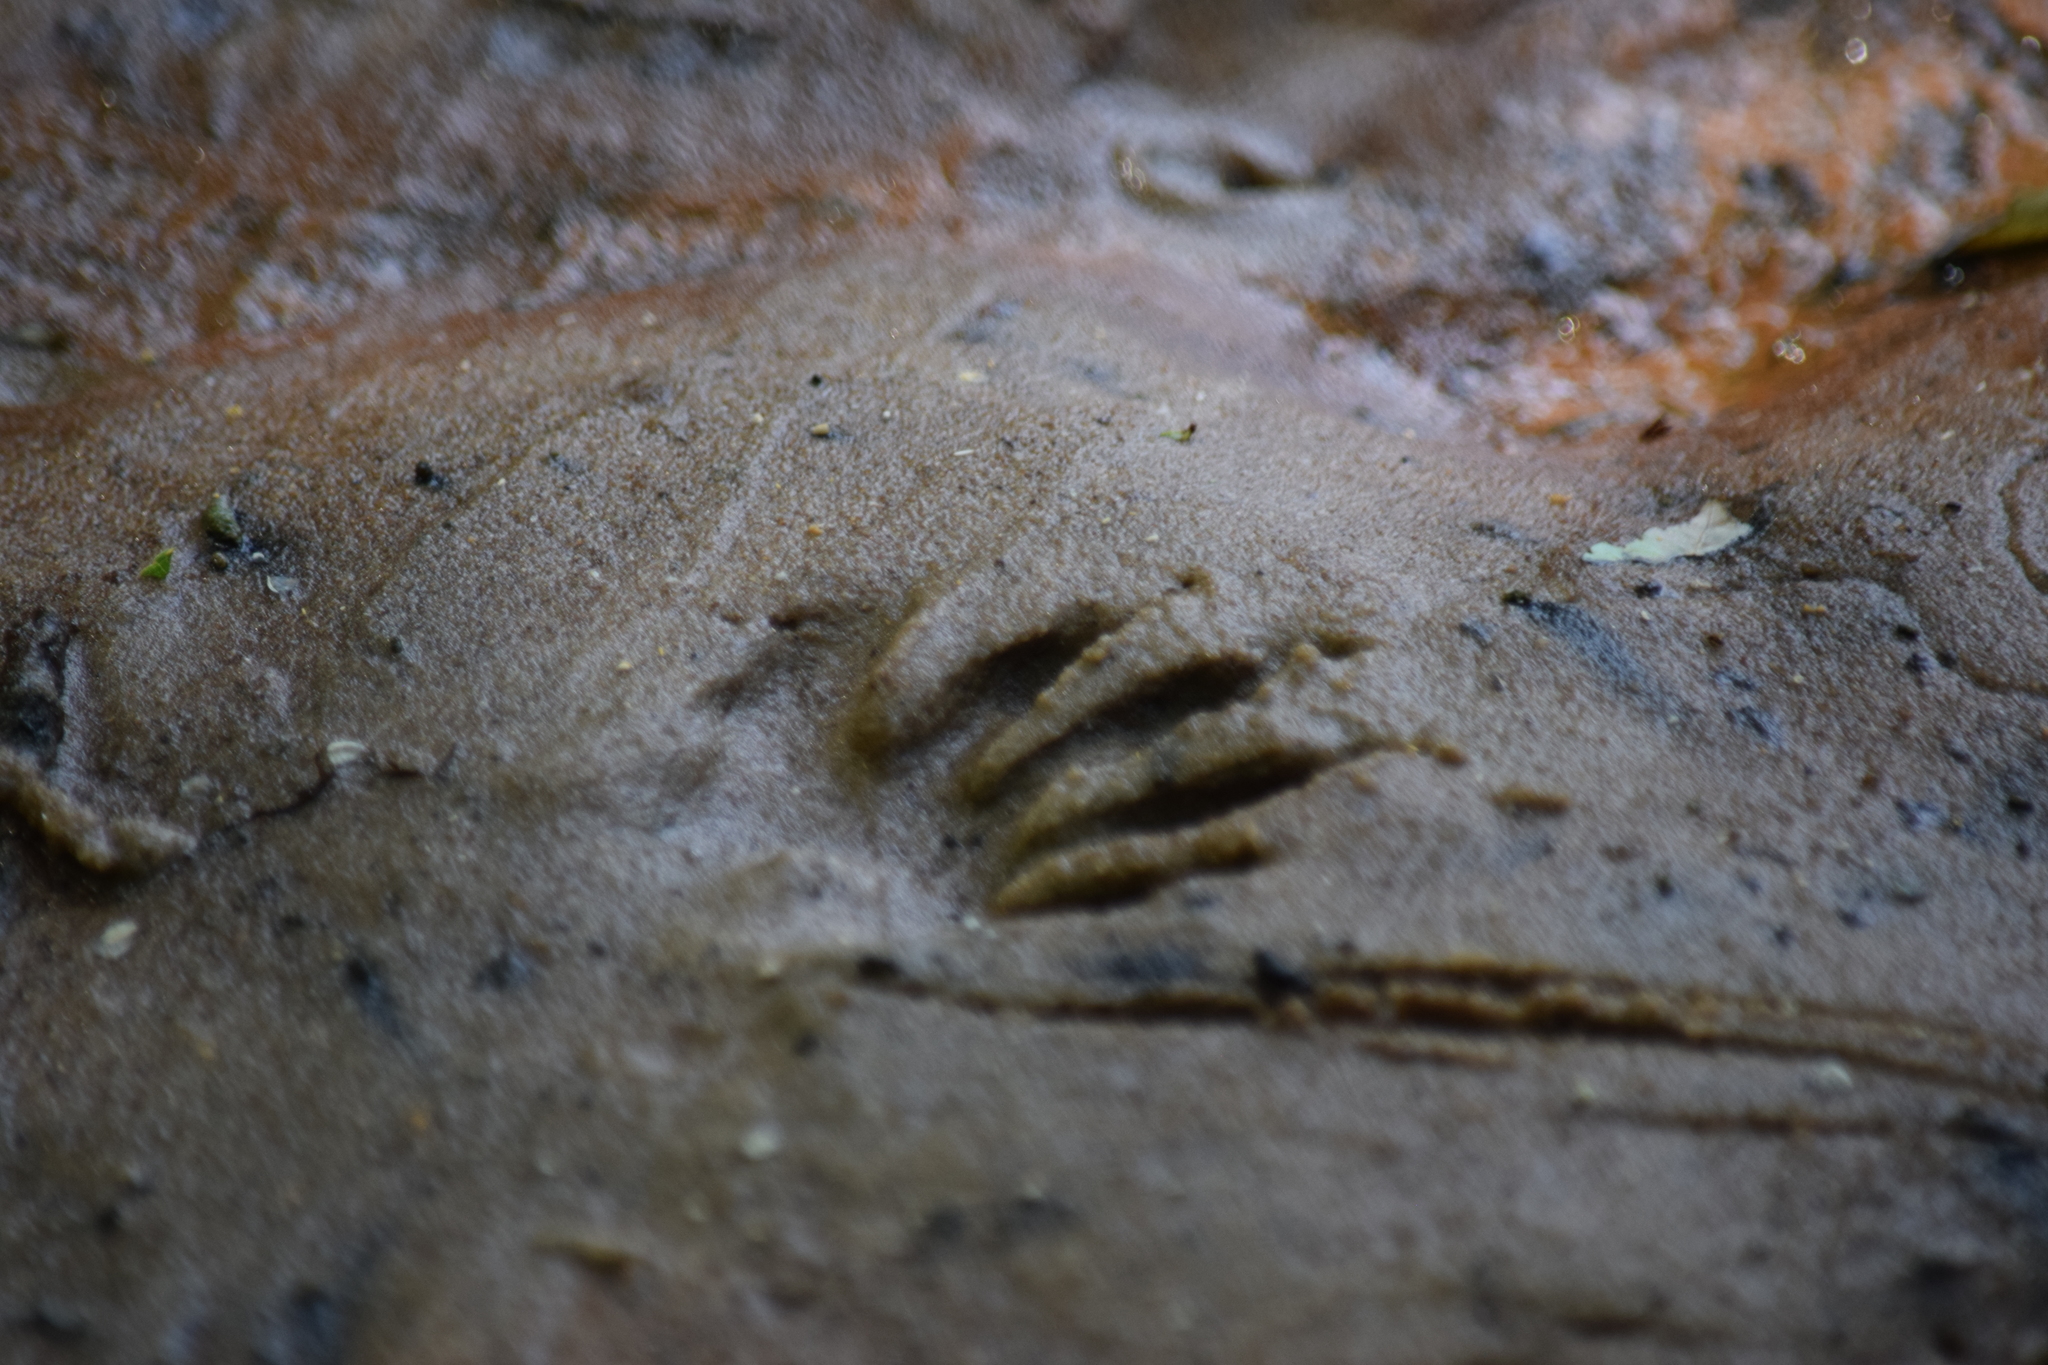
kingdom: Animalia
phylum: Chordata
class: Mammalia
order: Carnivora
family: Procyonidae
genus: Procyon
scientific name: Procyon lotor
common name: Raccoon
